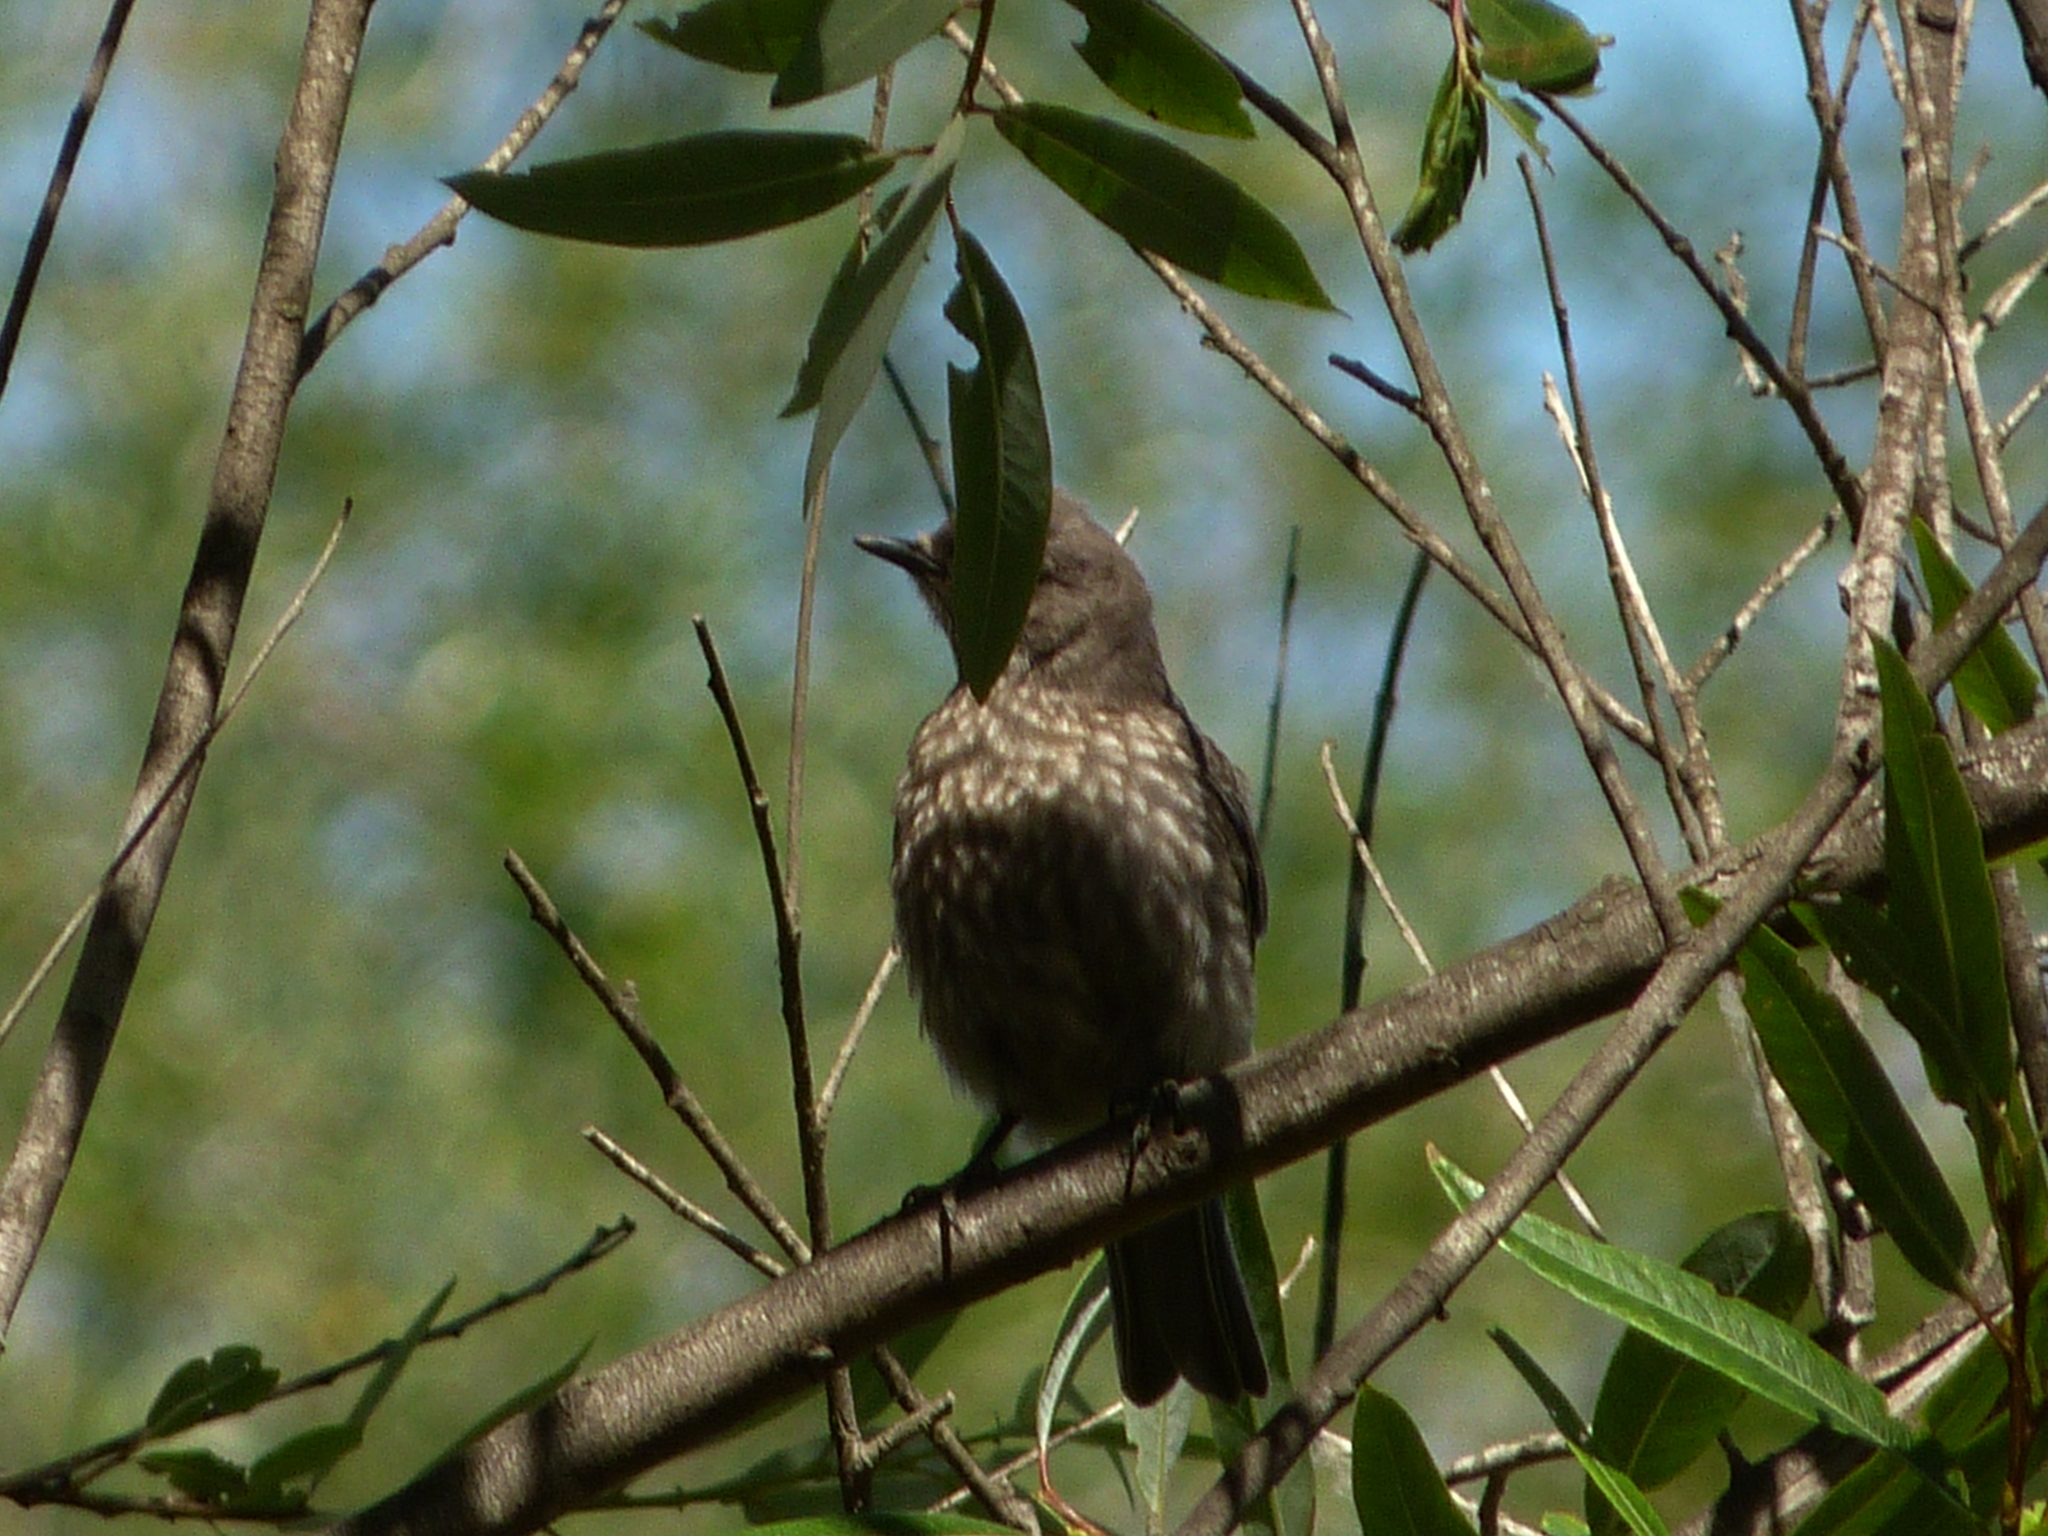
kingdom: Animalia
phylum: Chordata
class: Aves
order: Passeriformes
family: Turdidae
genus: Sialia
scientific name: Sialia mexicana
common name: Western bluebird
